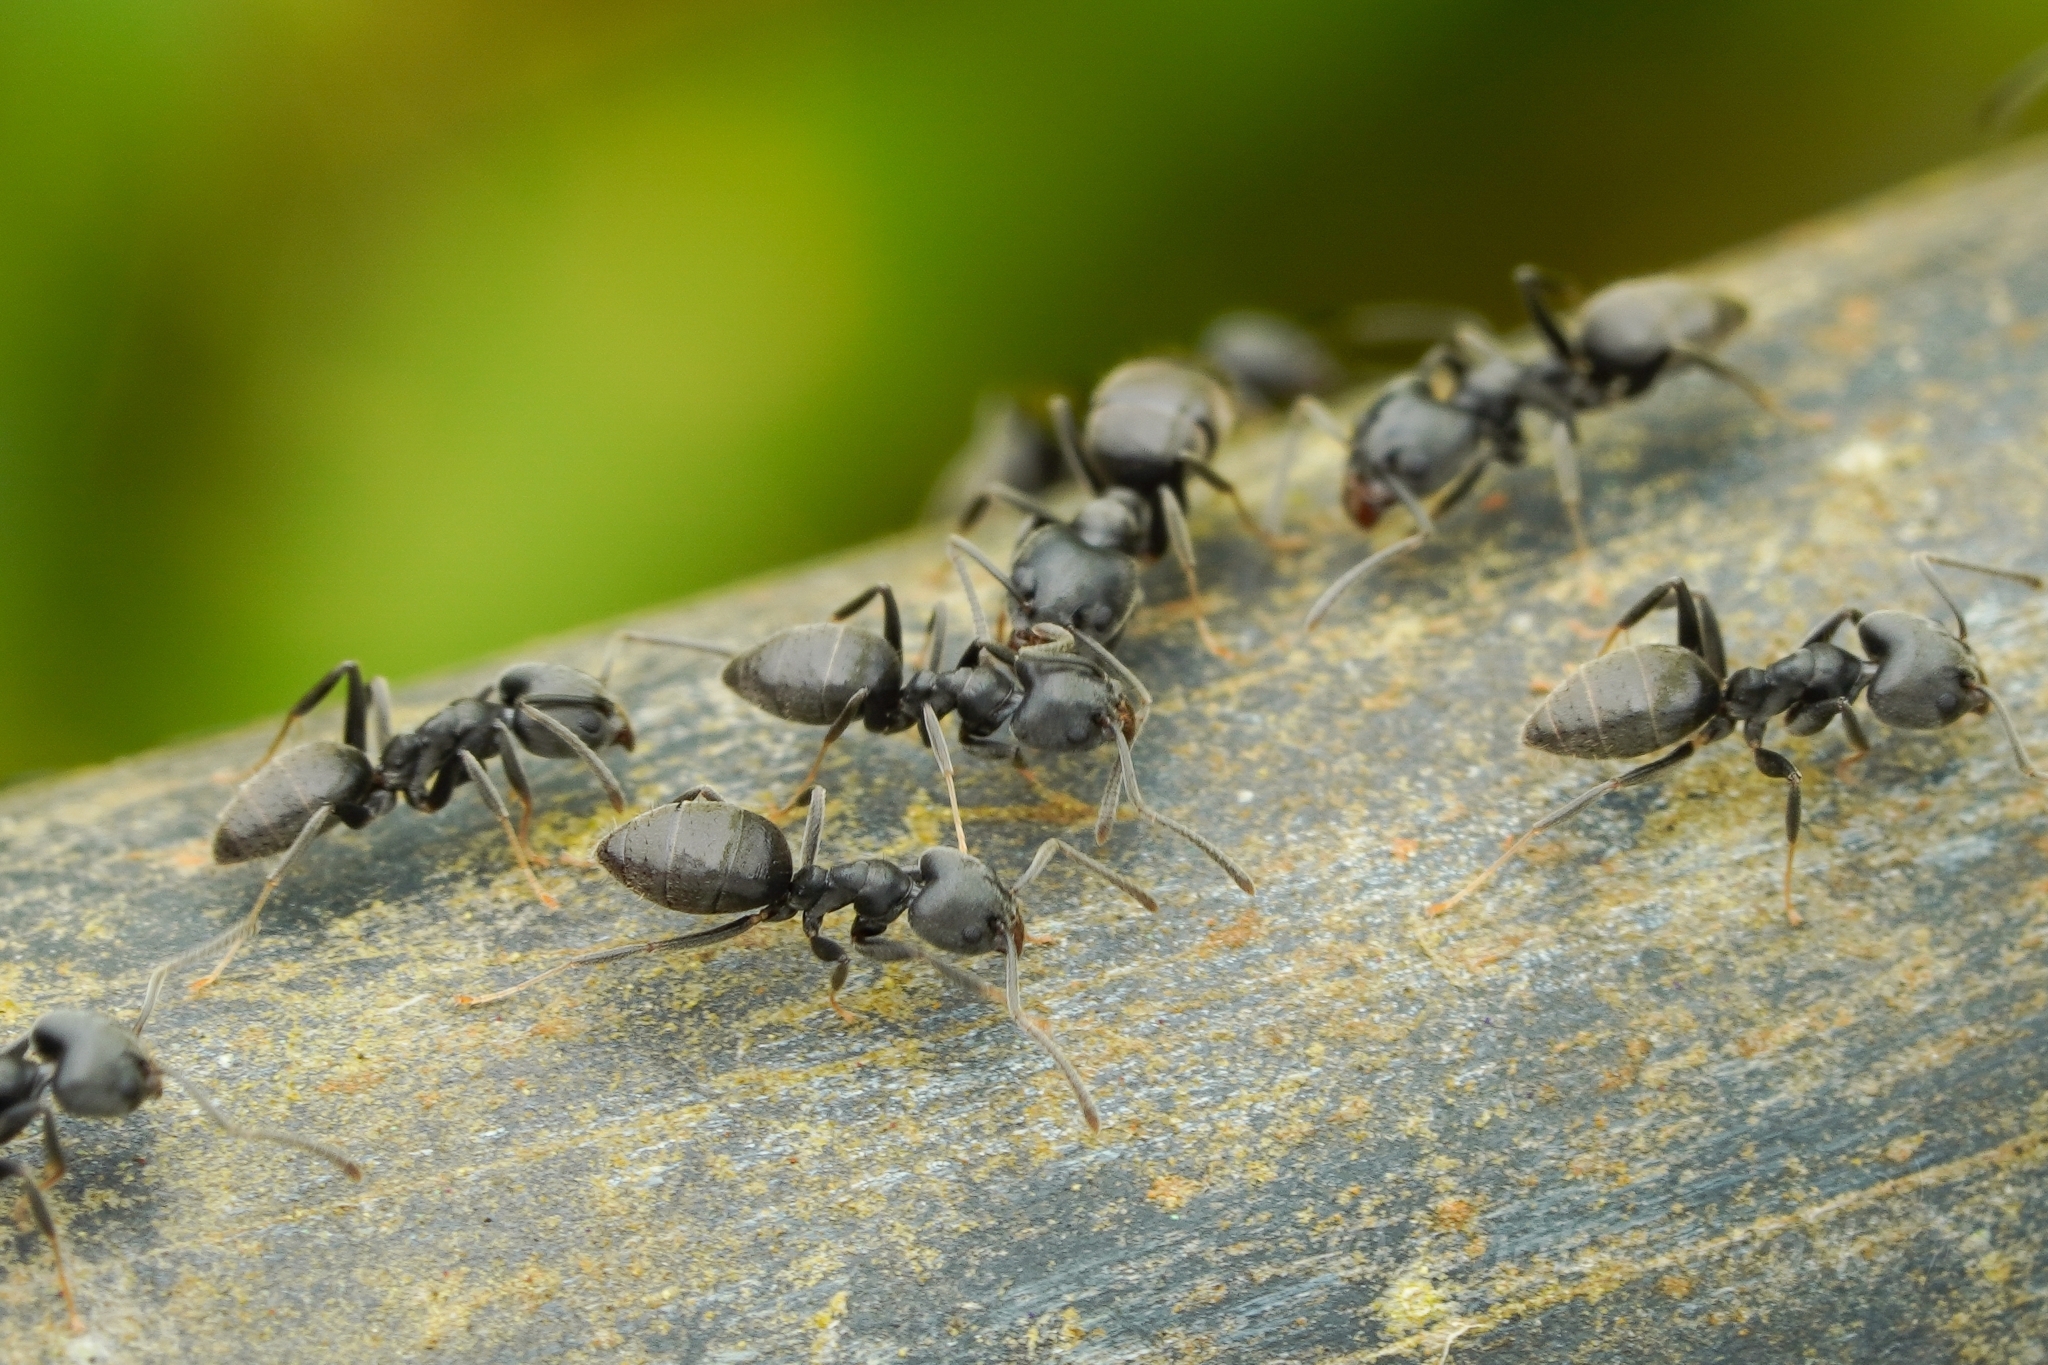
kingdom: Animalia
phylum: Arthropoda
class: Insecta
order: Hymenoptera
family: Formicidae
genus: Technomyrmex
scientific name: Technomyrmex modiglianii
